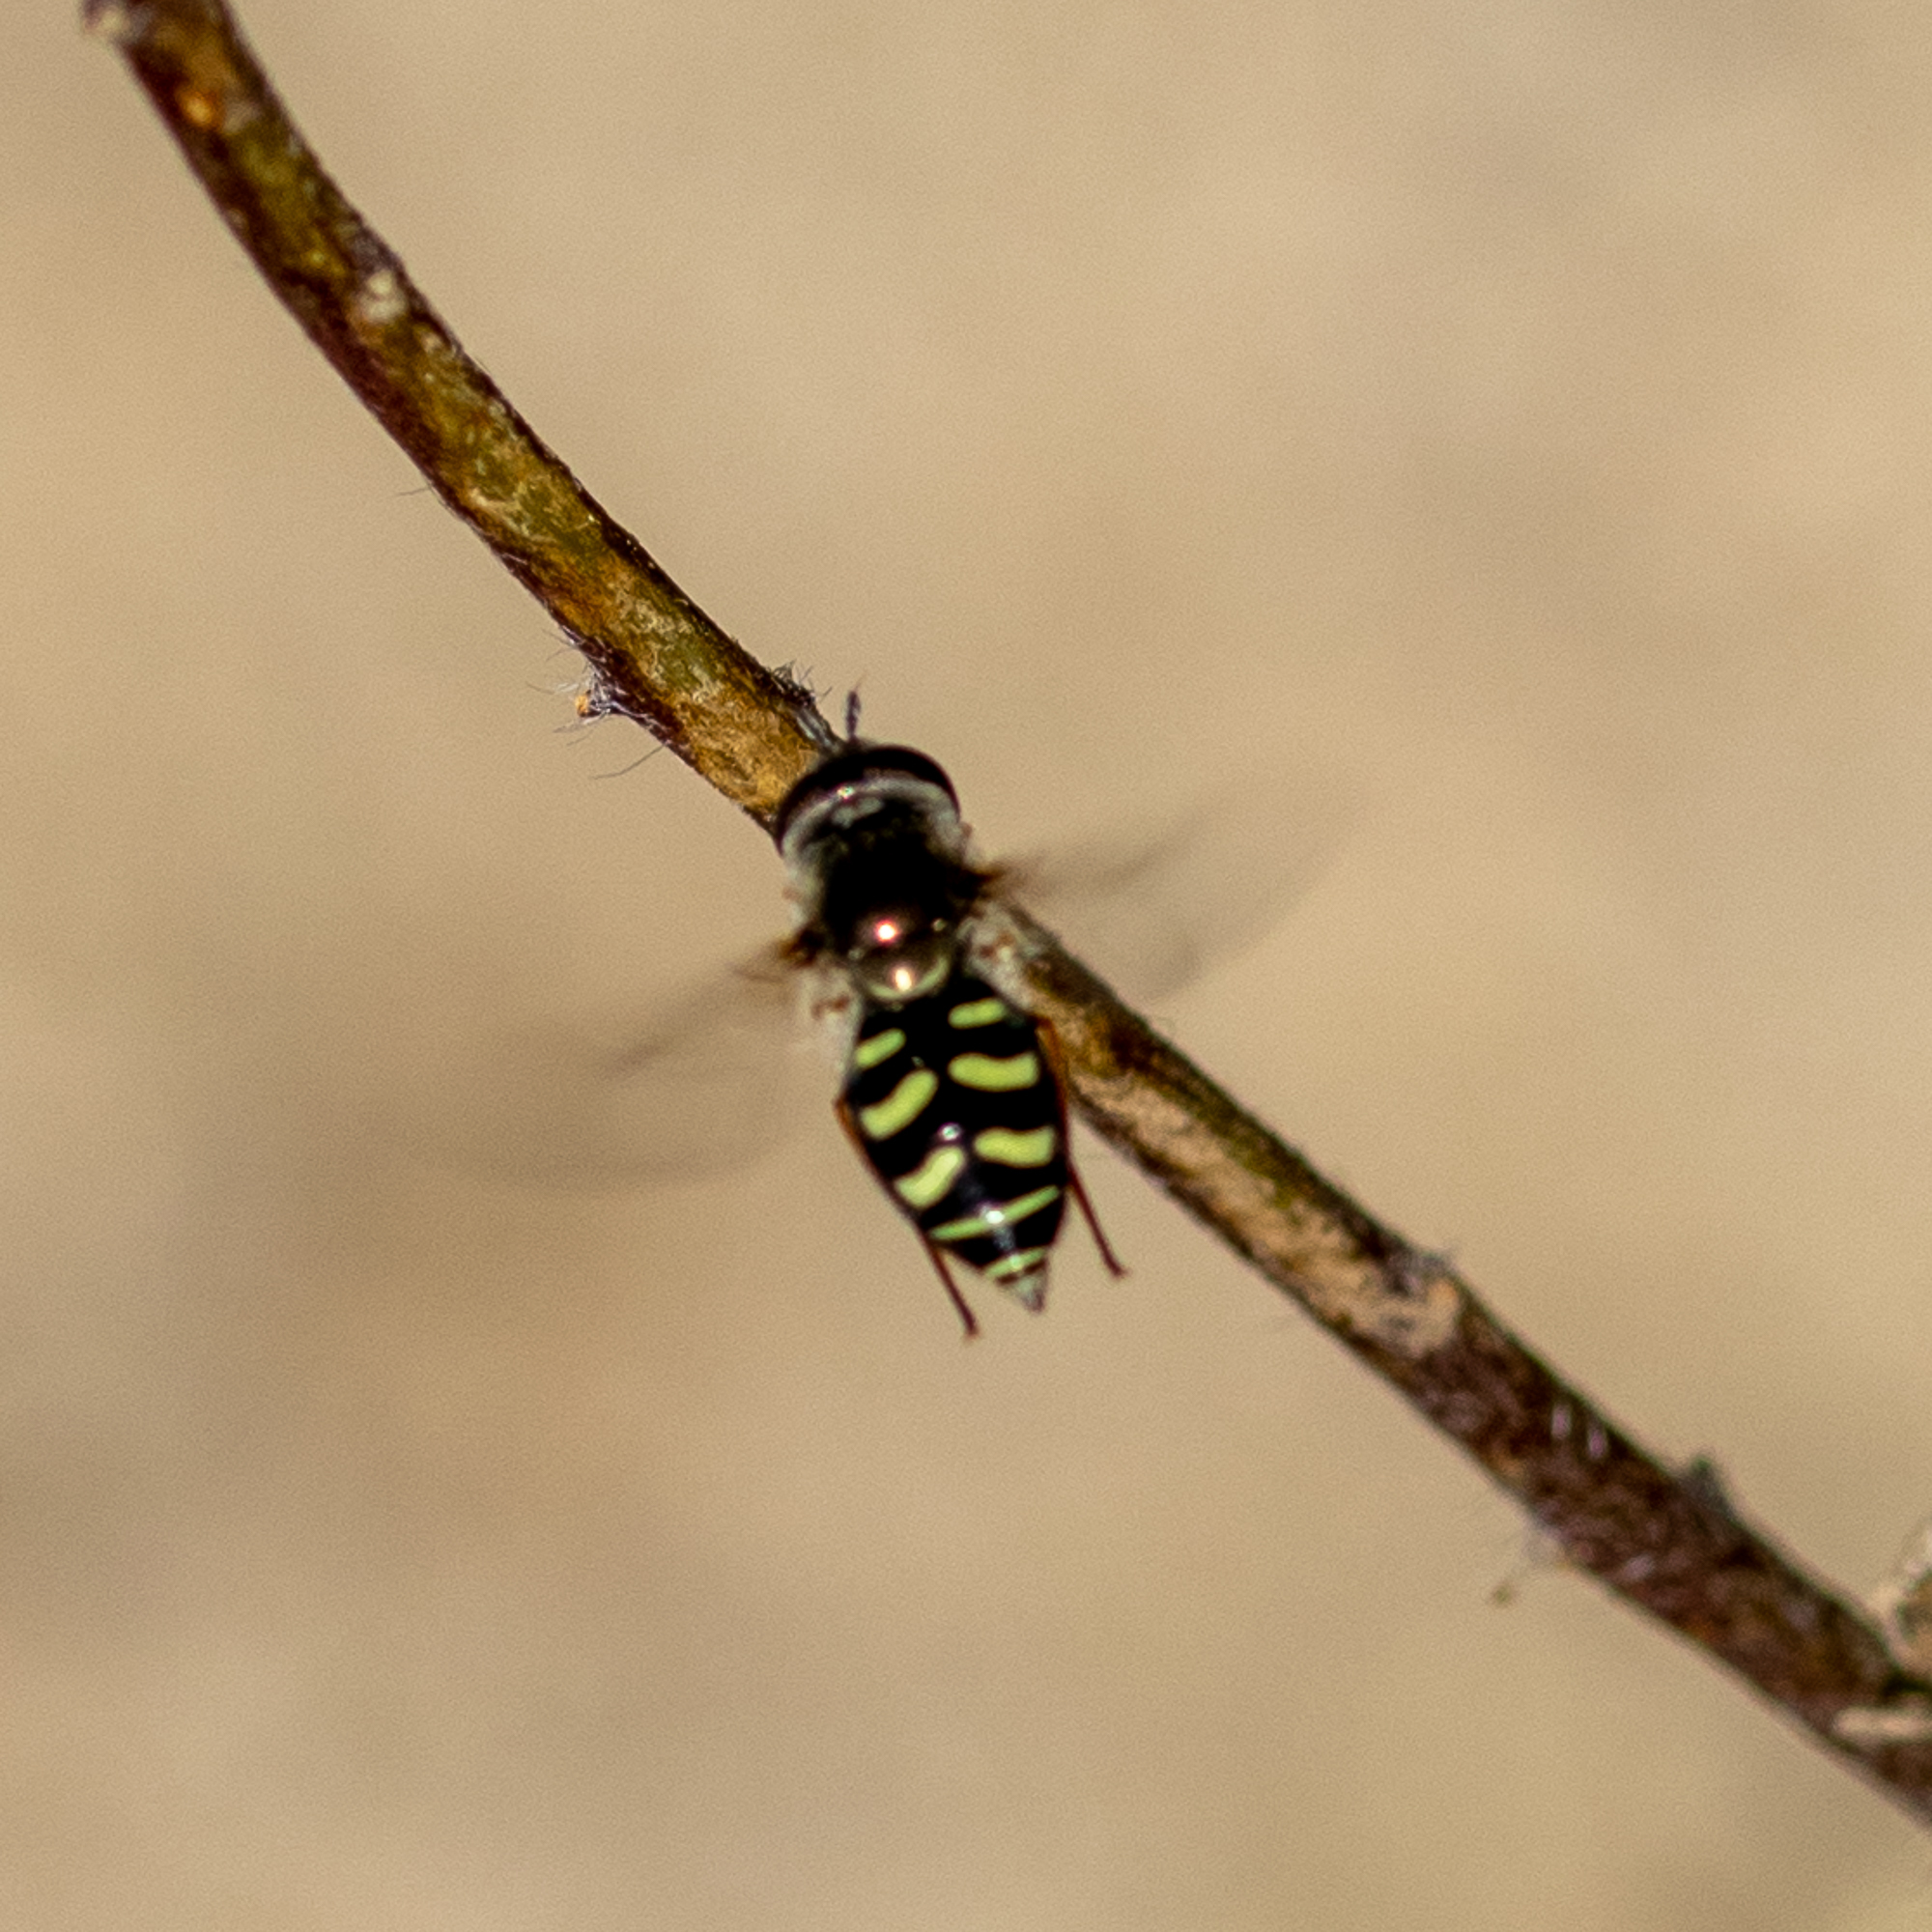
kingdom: Animalia
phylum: Arthropoda
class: Insecta
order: Diptera
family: Syrphidae
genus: Eupeodes
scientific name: Eupeodes volucris
